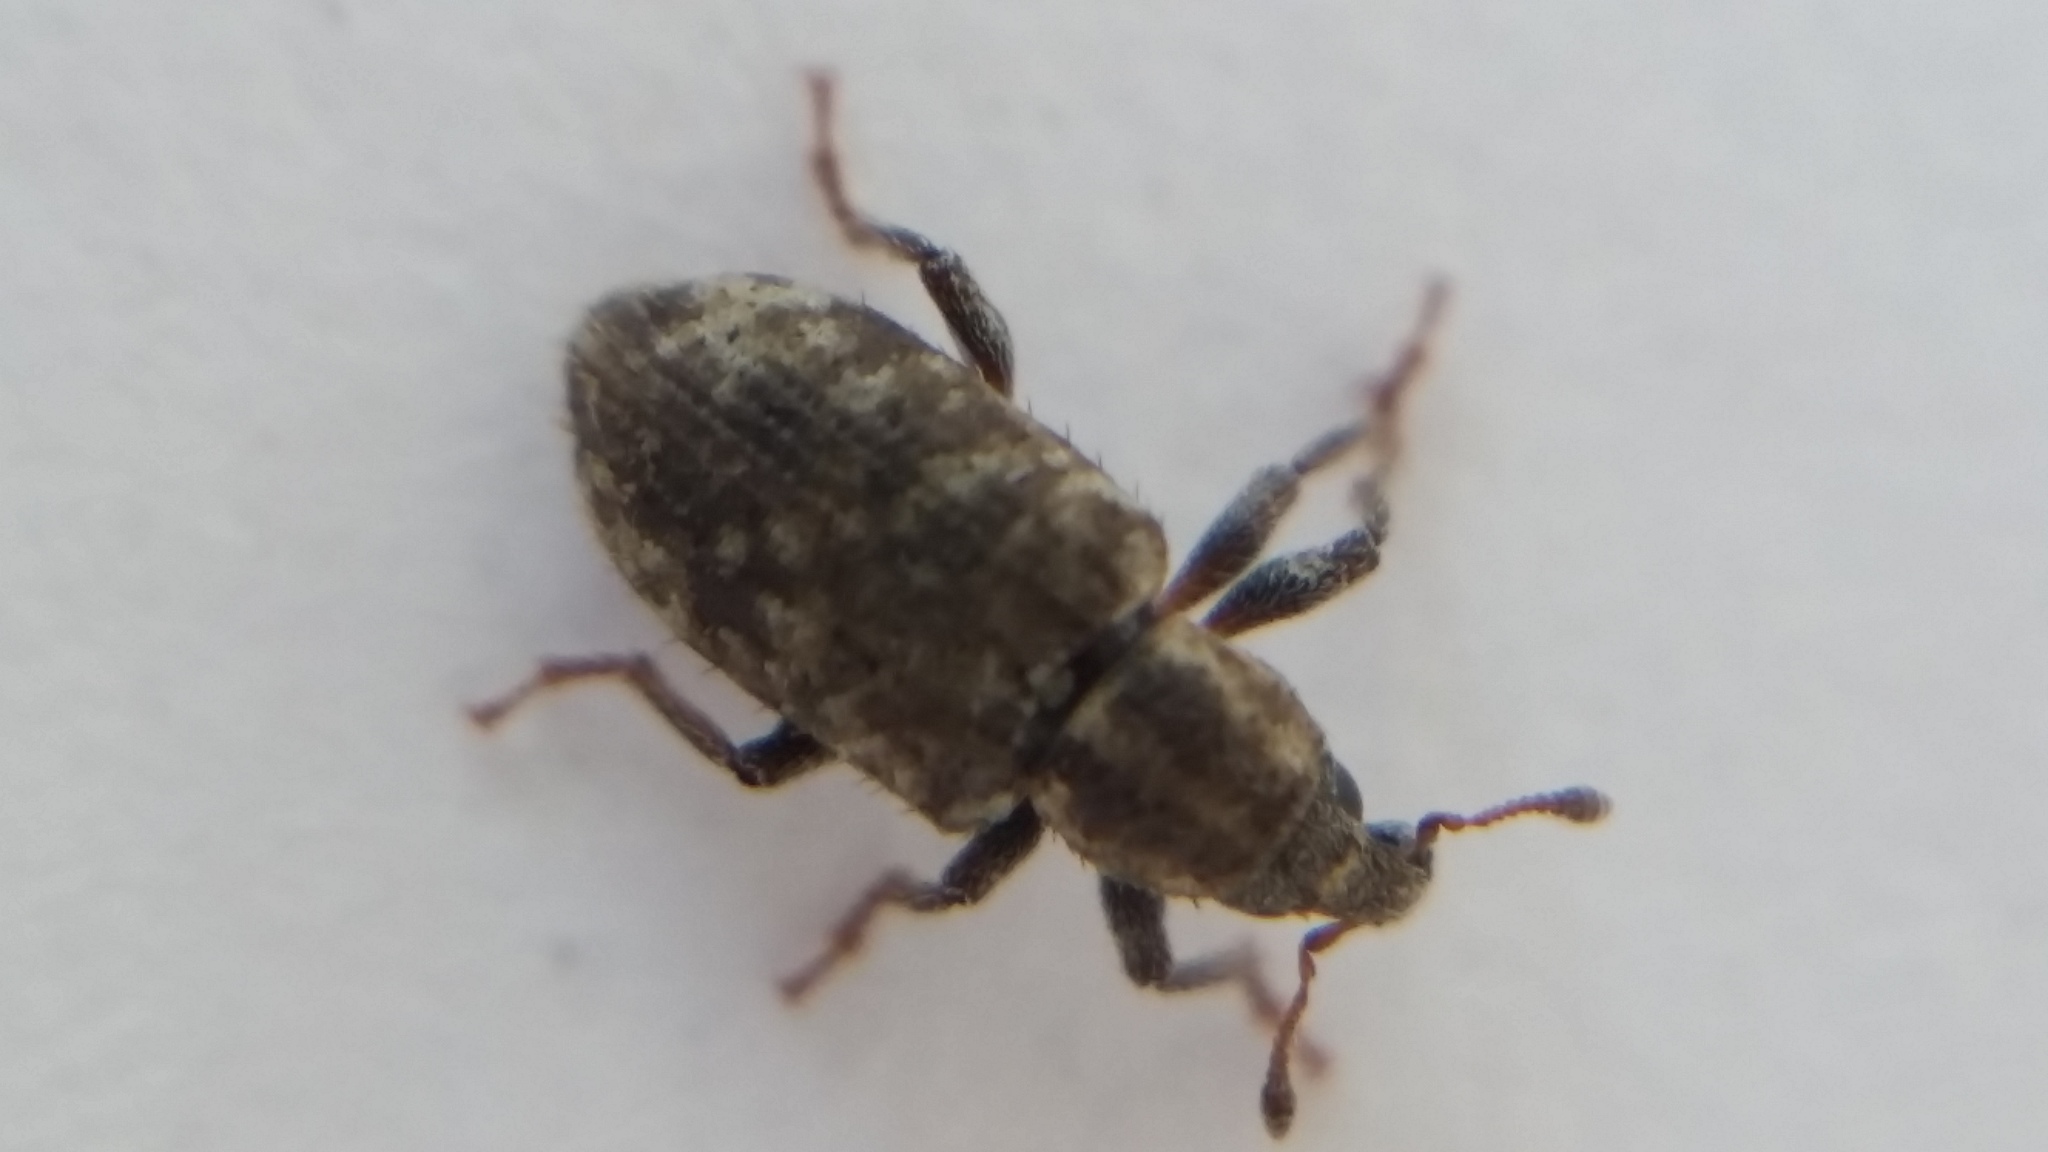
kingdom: Animalia
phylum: Arthropoda
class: Insecta
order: Coleoptera
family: Curculionidae
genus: Listronotus
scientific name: Listronotus bonariensis
